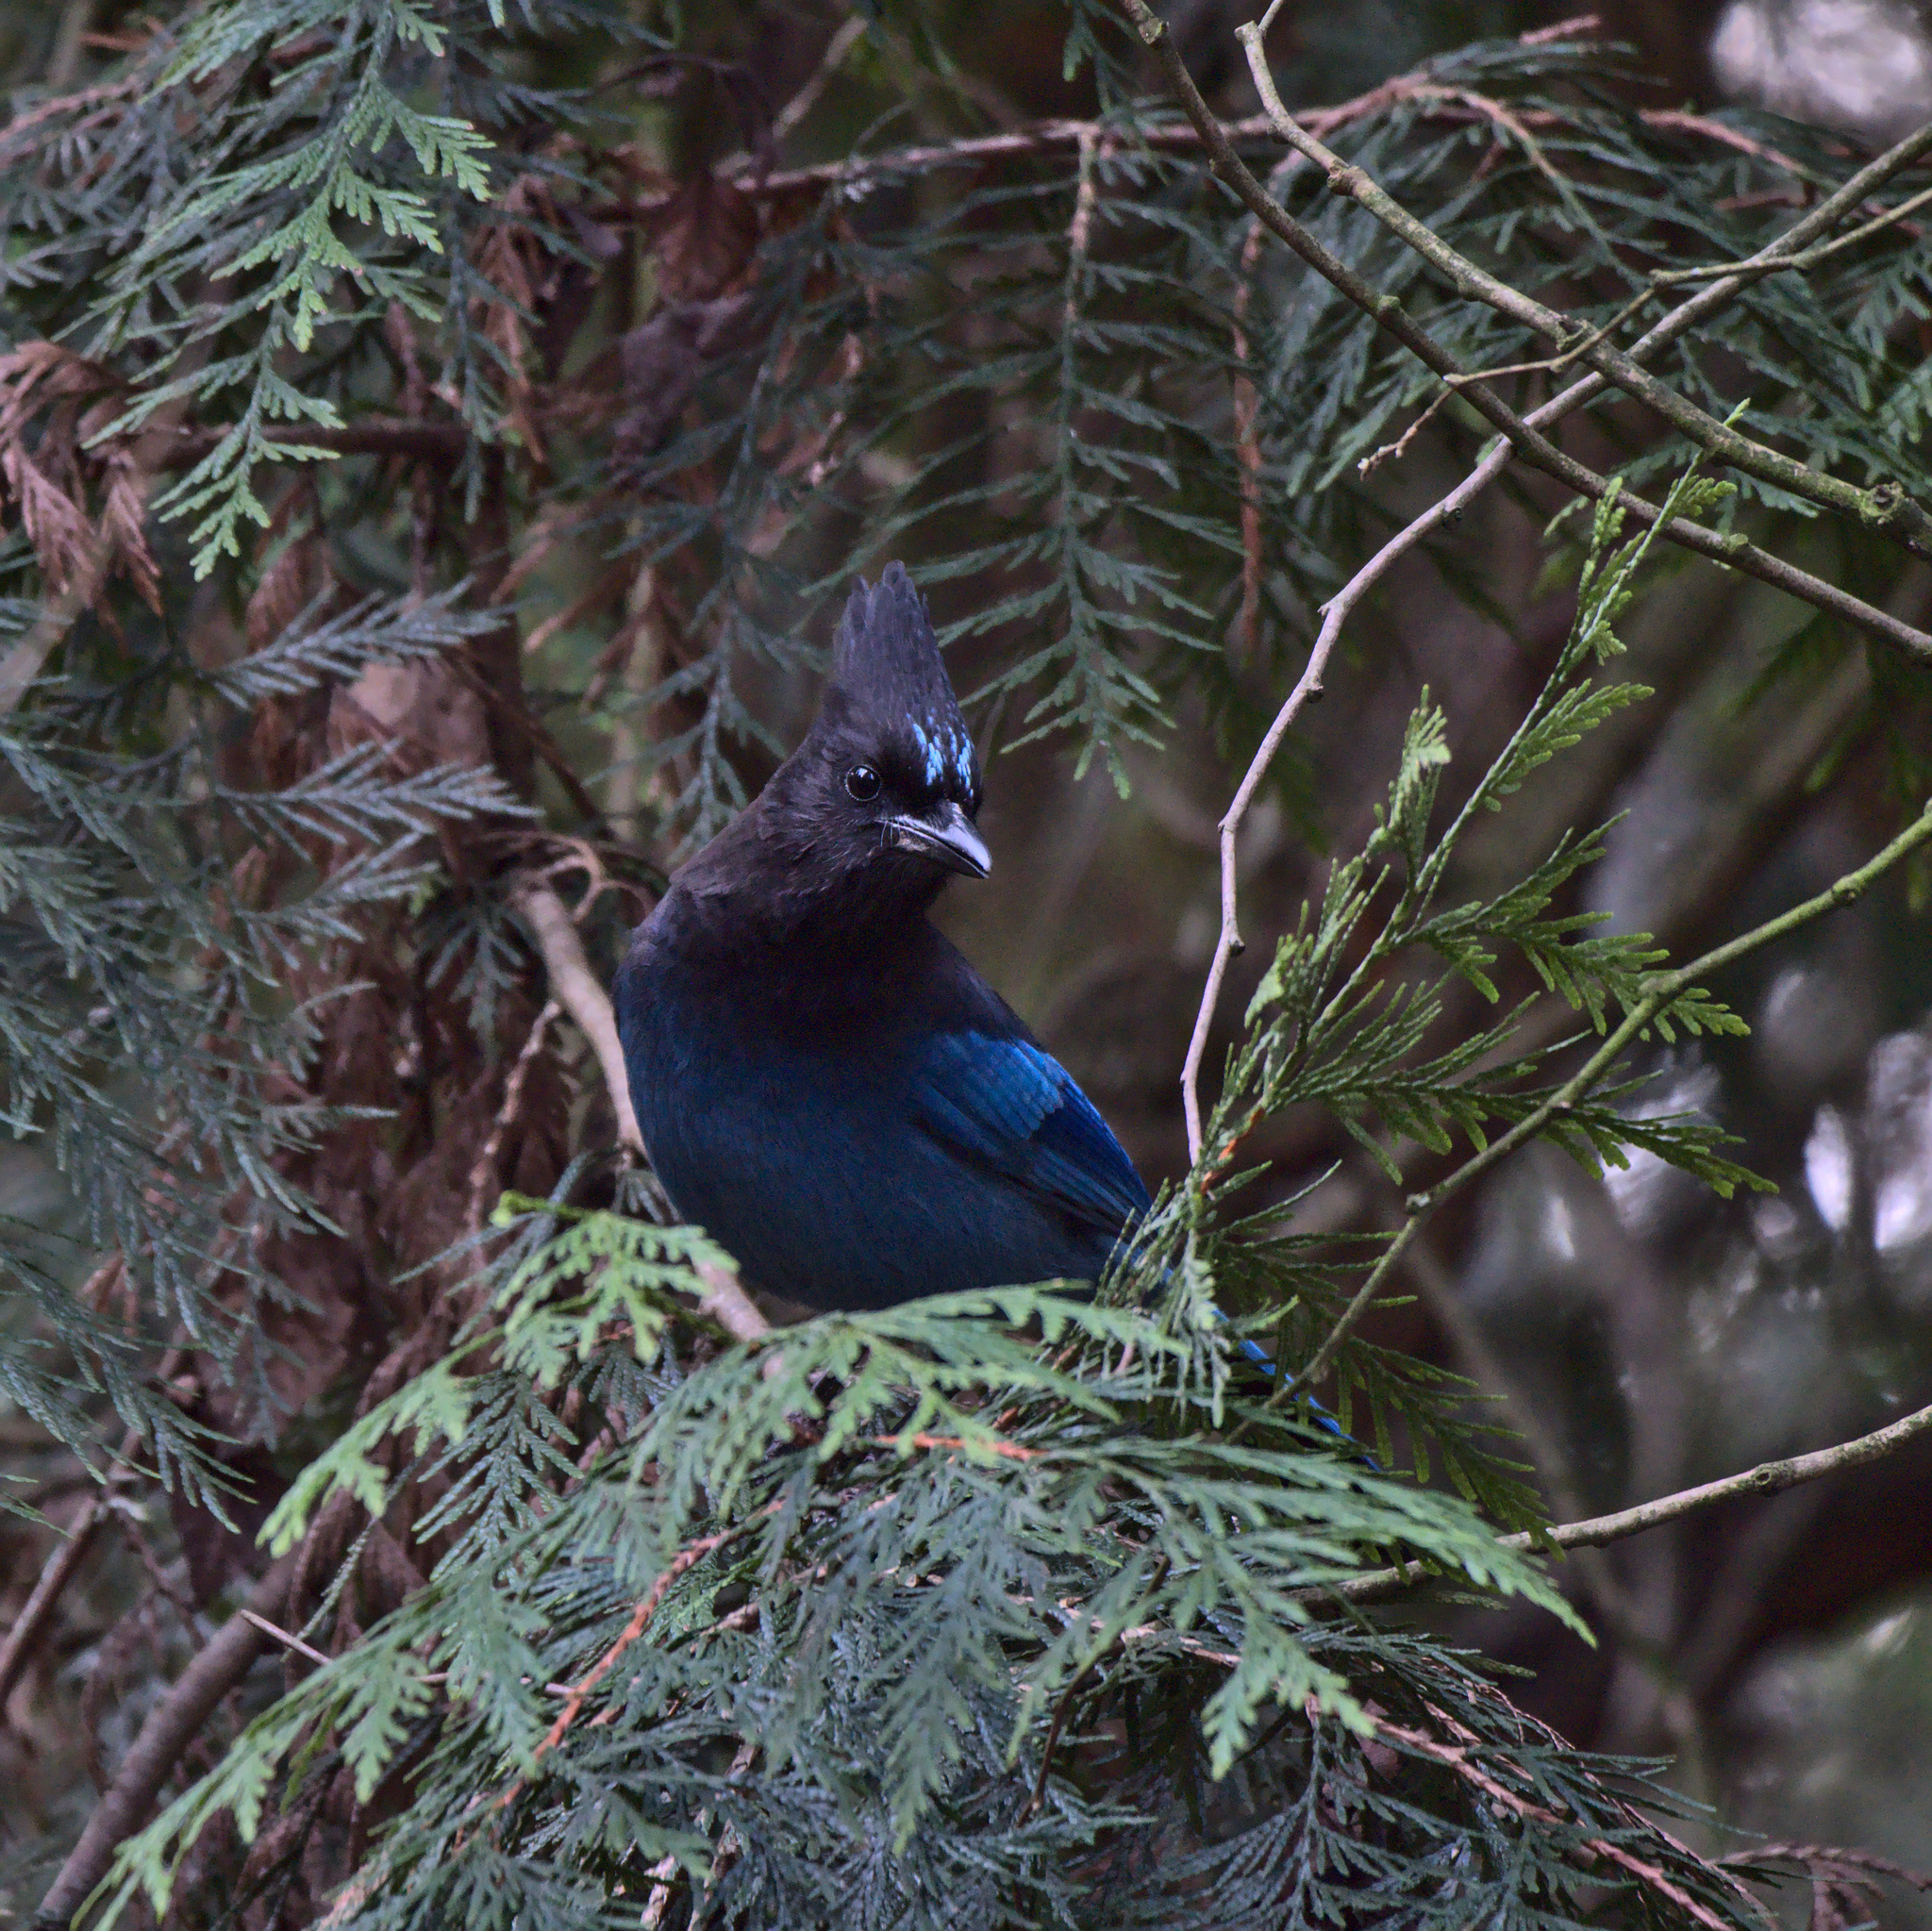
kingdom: Animalia
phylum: Chordata
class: Aves
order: Passeriformes
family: Corvidae
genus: Cyanocitta
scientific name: Cyanocitta stelleri
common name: Steller's jay
